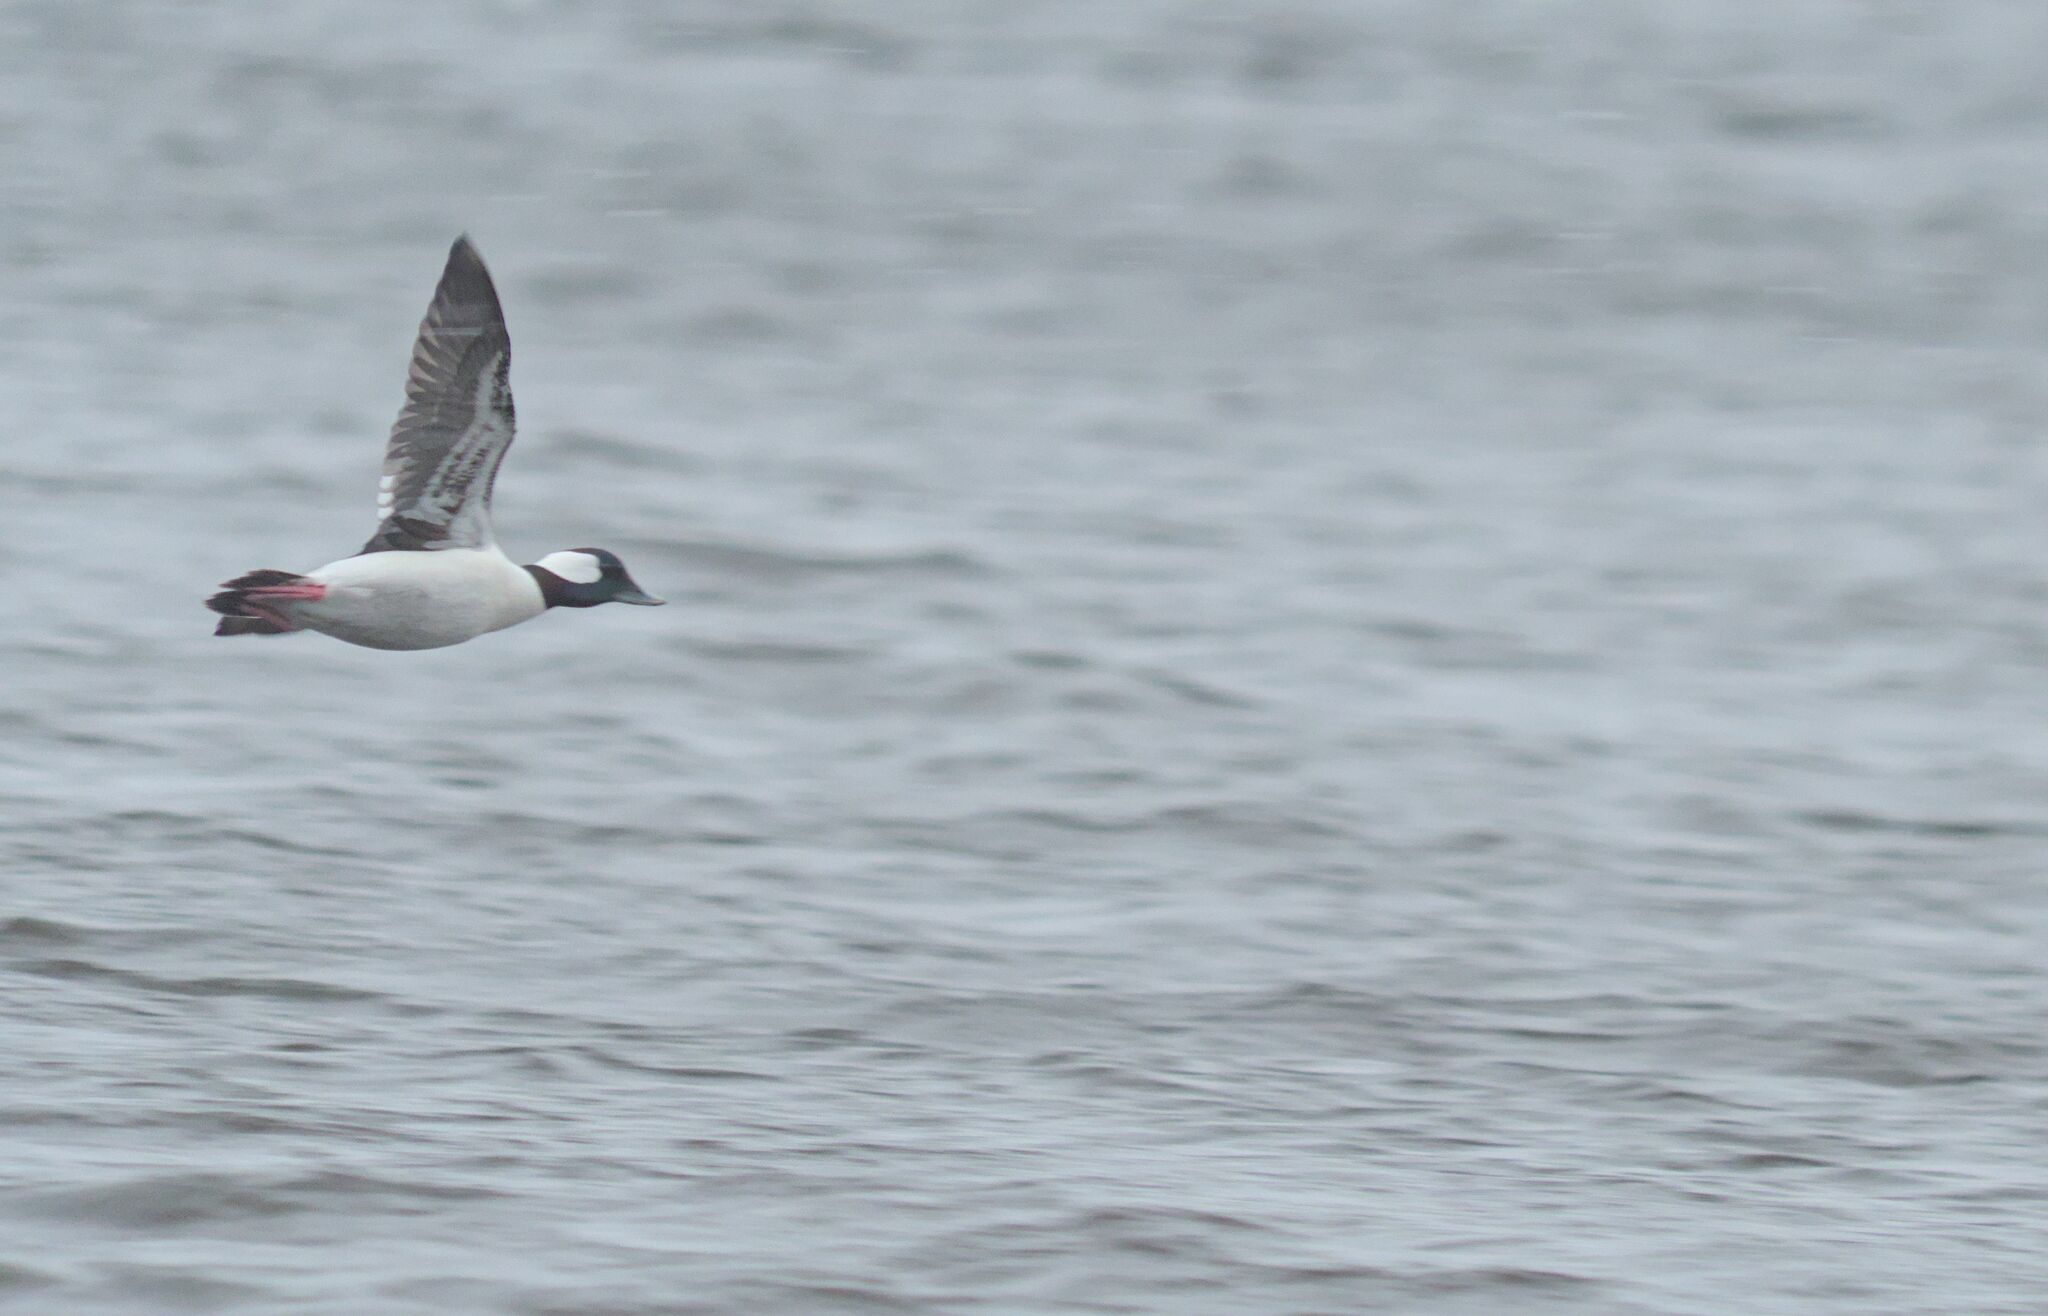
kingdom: Animalia
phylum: Chordata
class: Aves
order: Anseriformes
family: Anatidae
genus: Bucephala
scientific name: Bucephala albeola
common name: Bufflehead
